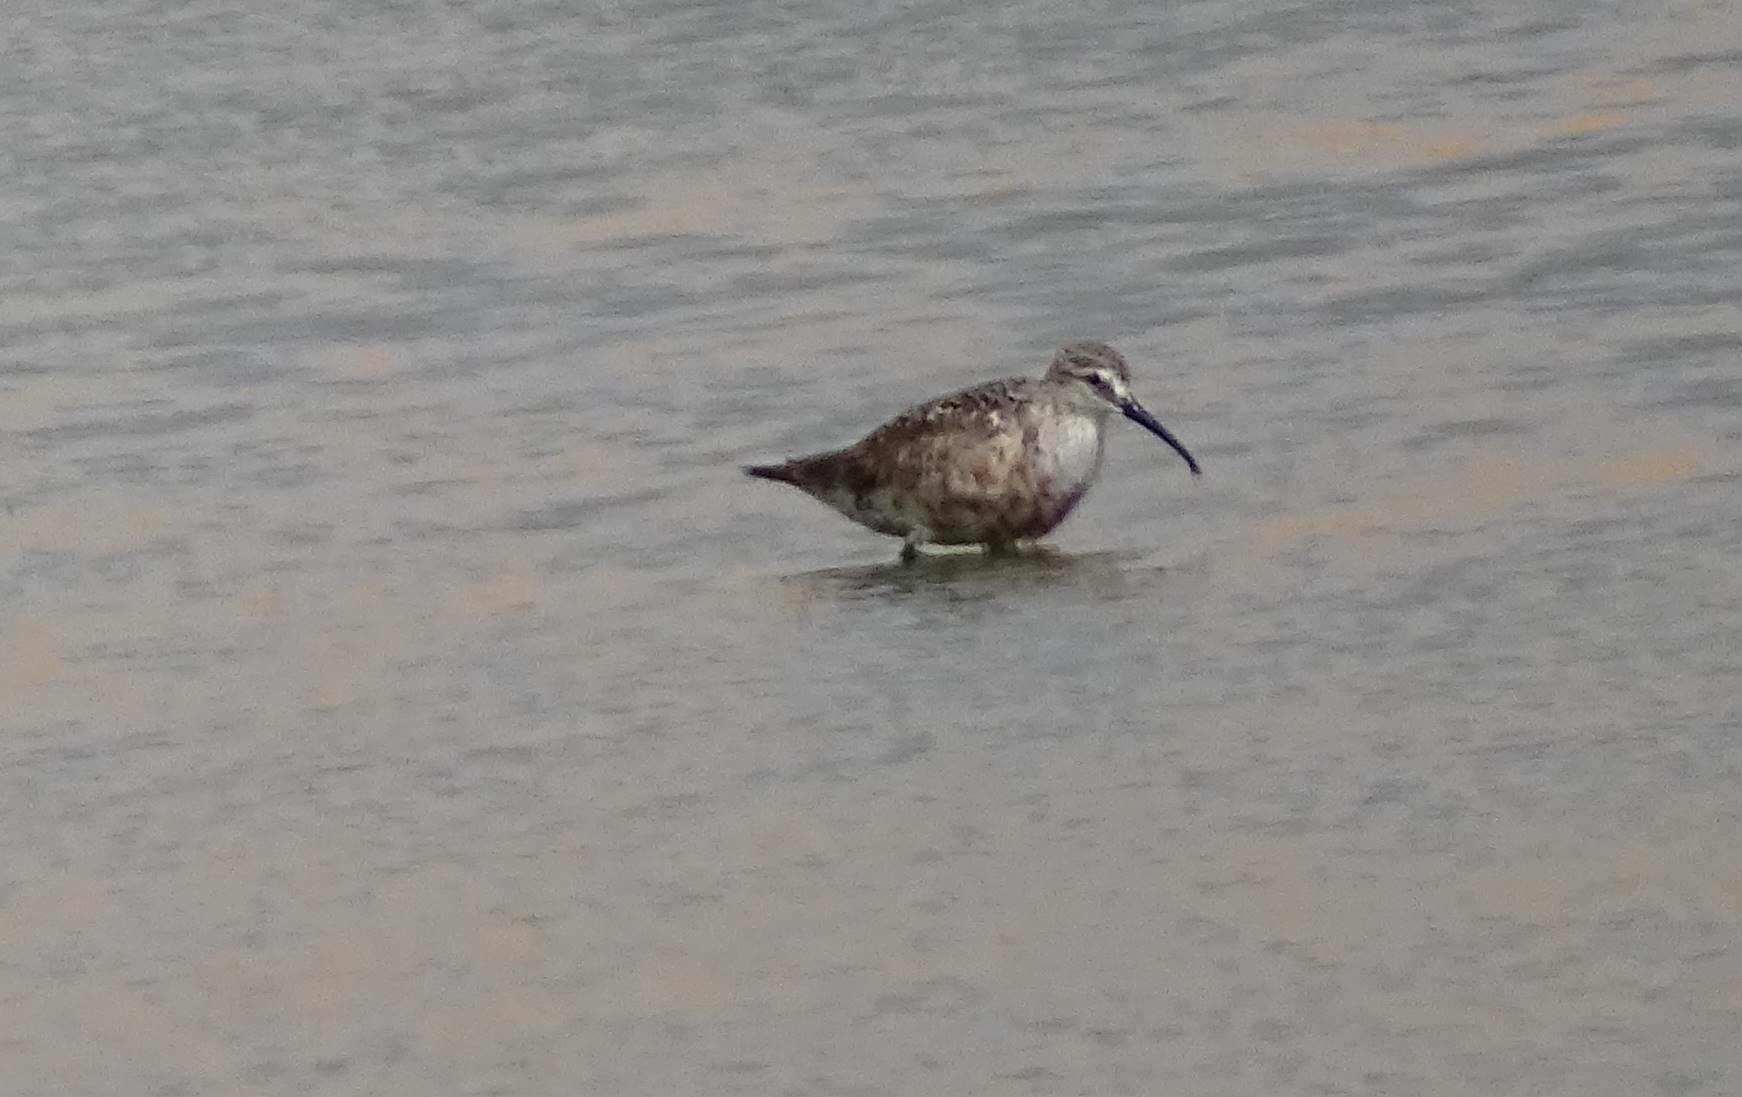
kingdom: Animalia
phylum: Chordata
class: Aves
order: Charadriiformes
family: Scolopacidae
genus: Calidris
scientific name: Calidris ferruginea
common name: Curlew sandpiper
